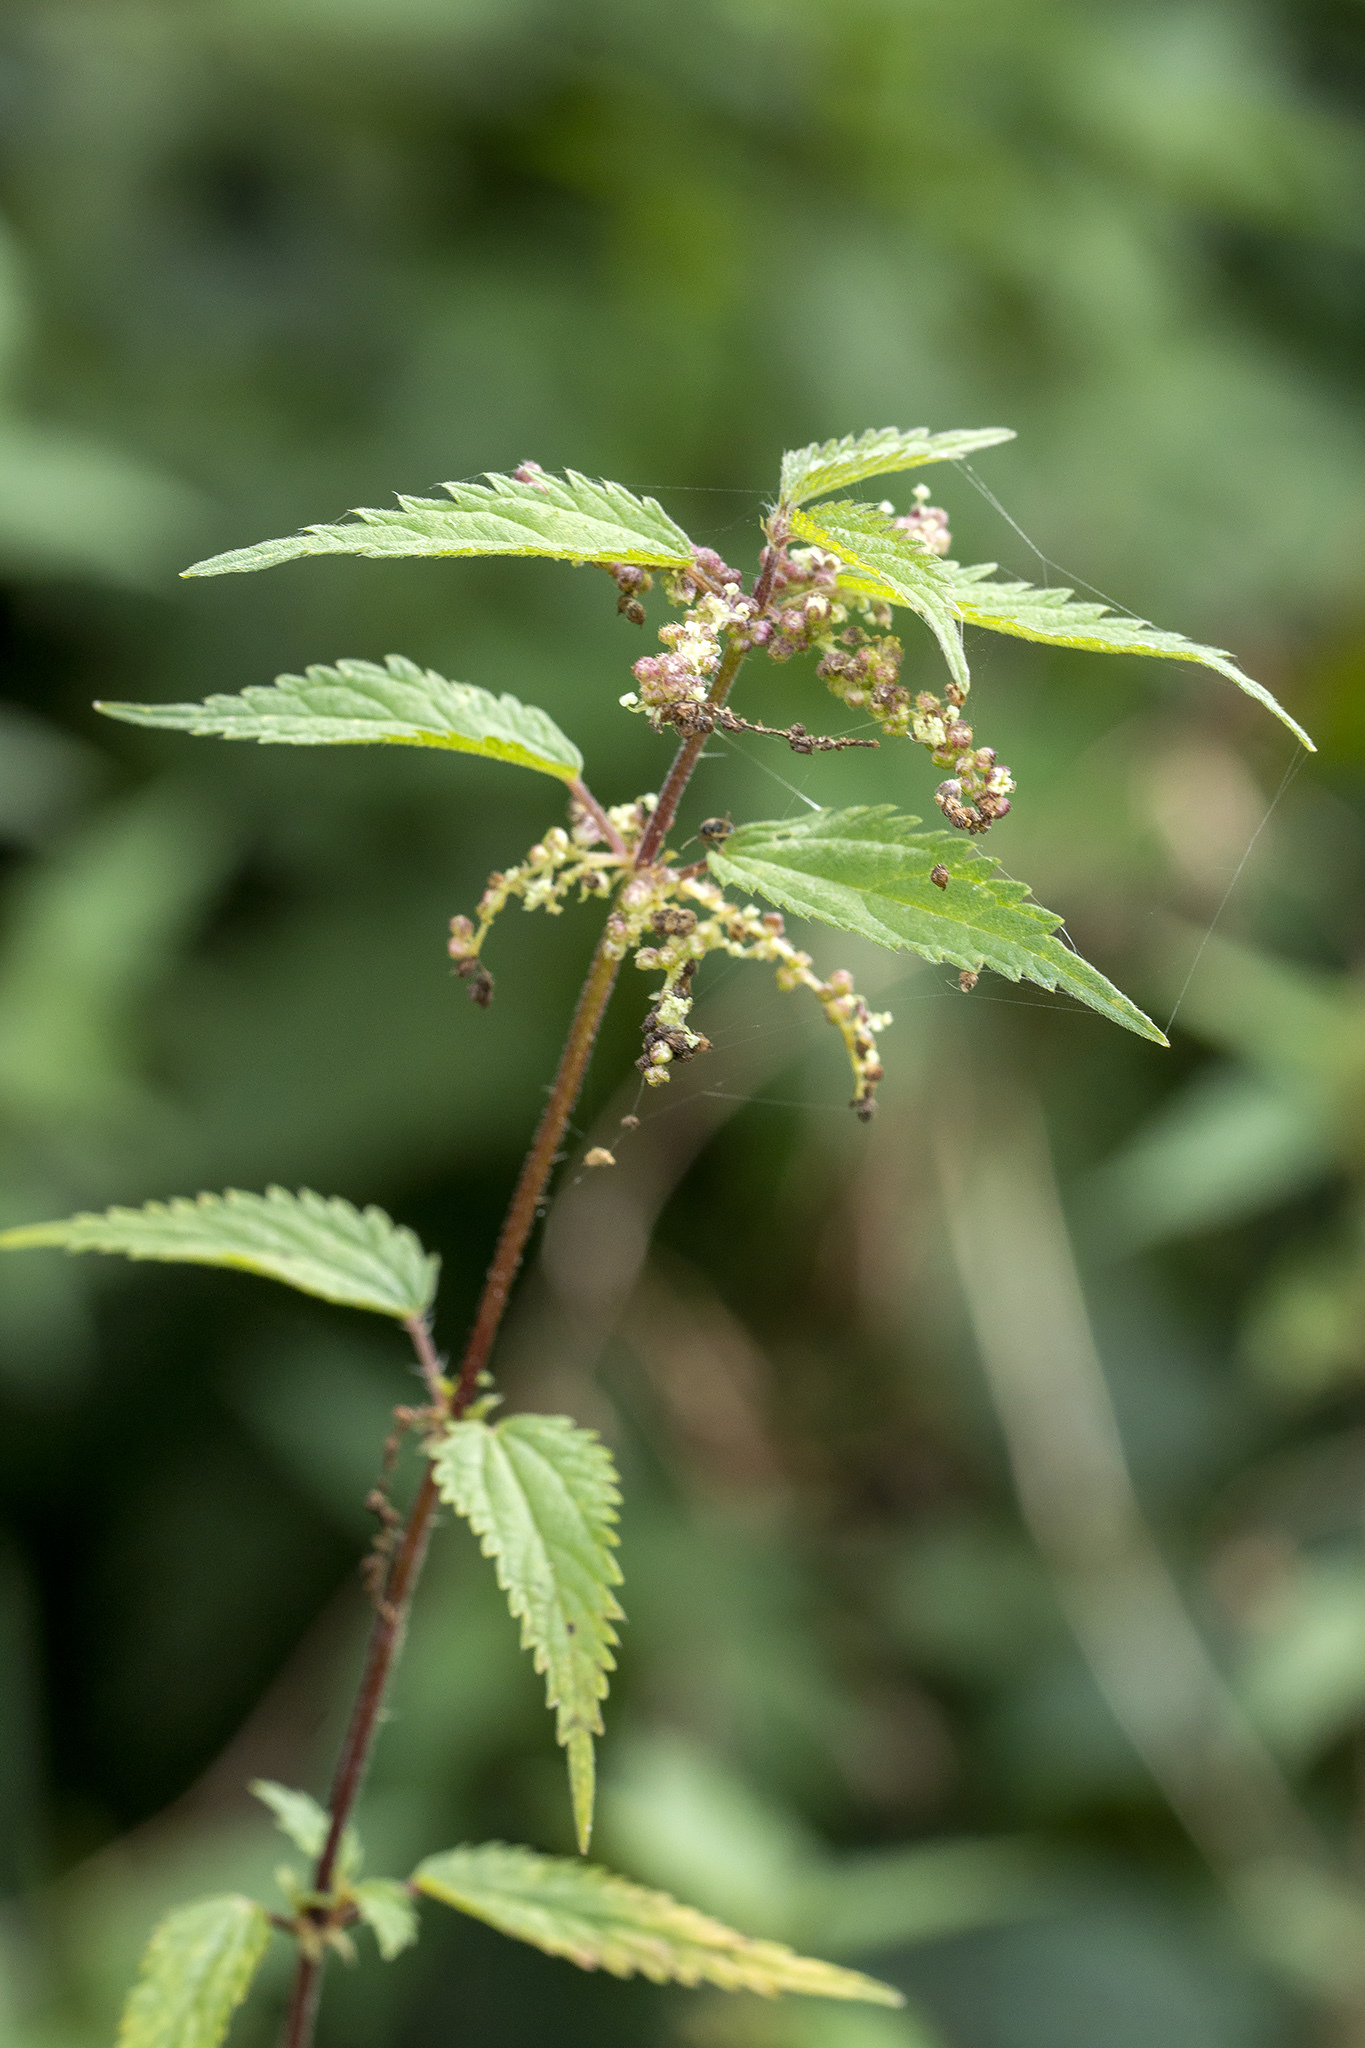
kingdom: Plantae
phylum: Tracheophyta
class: Magnoliopsida
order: Rosales
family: Urticaceae
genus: Urtica
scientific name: Urtica dioica
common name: Common nettle
